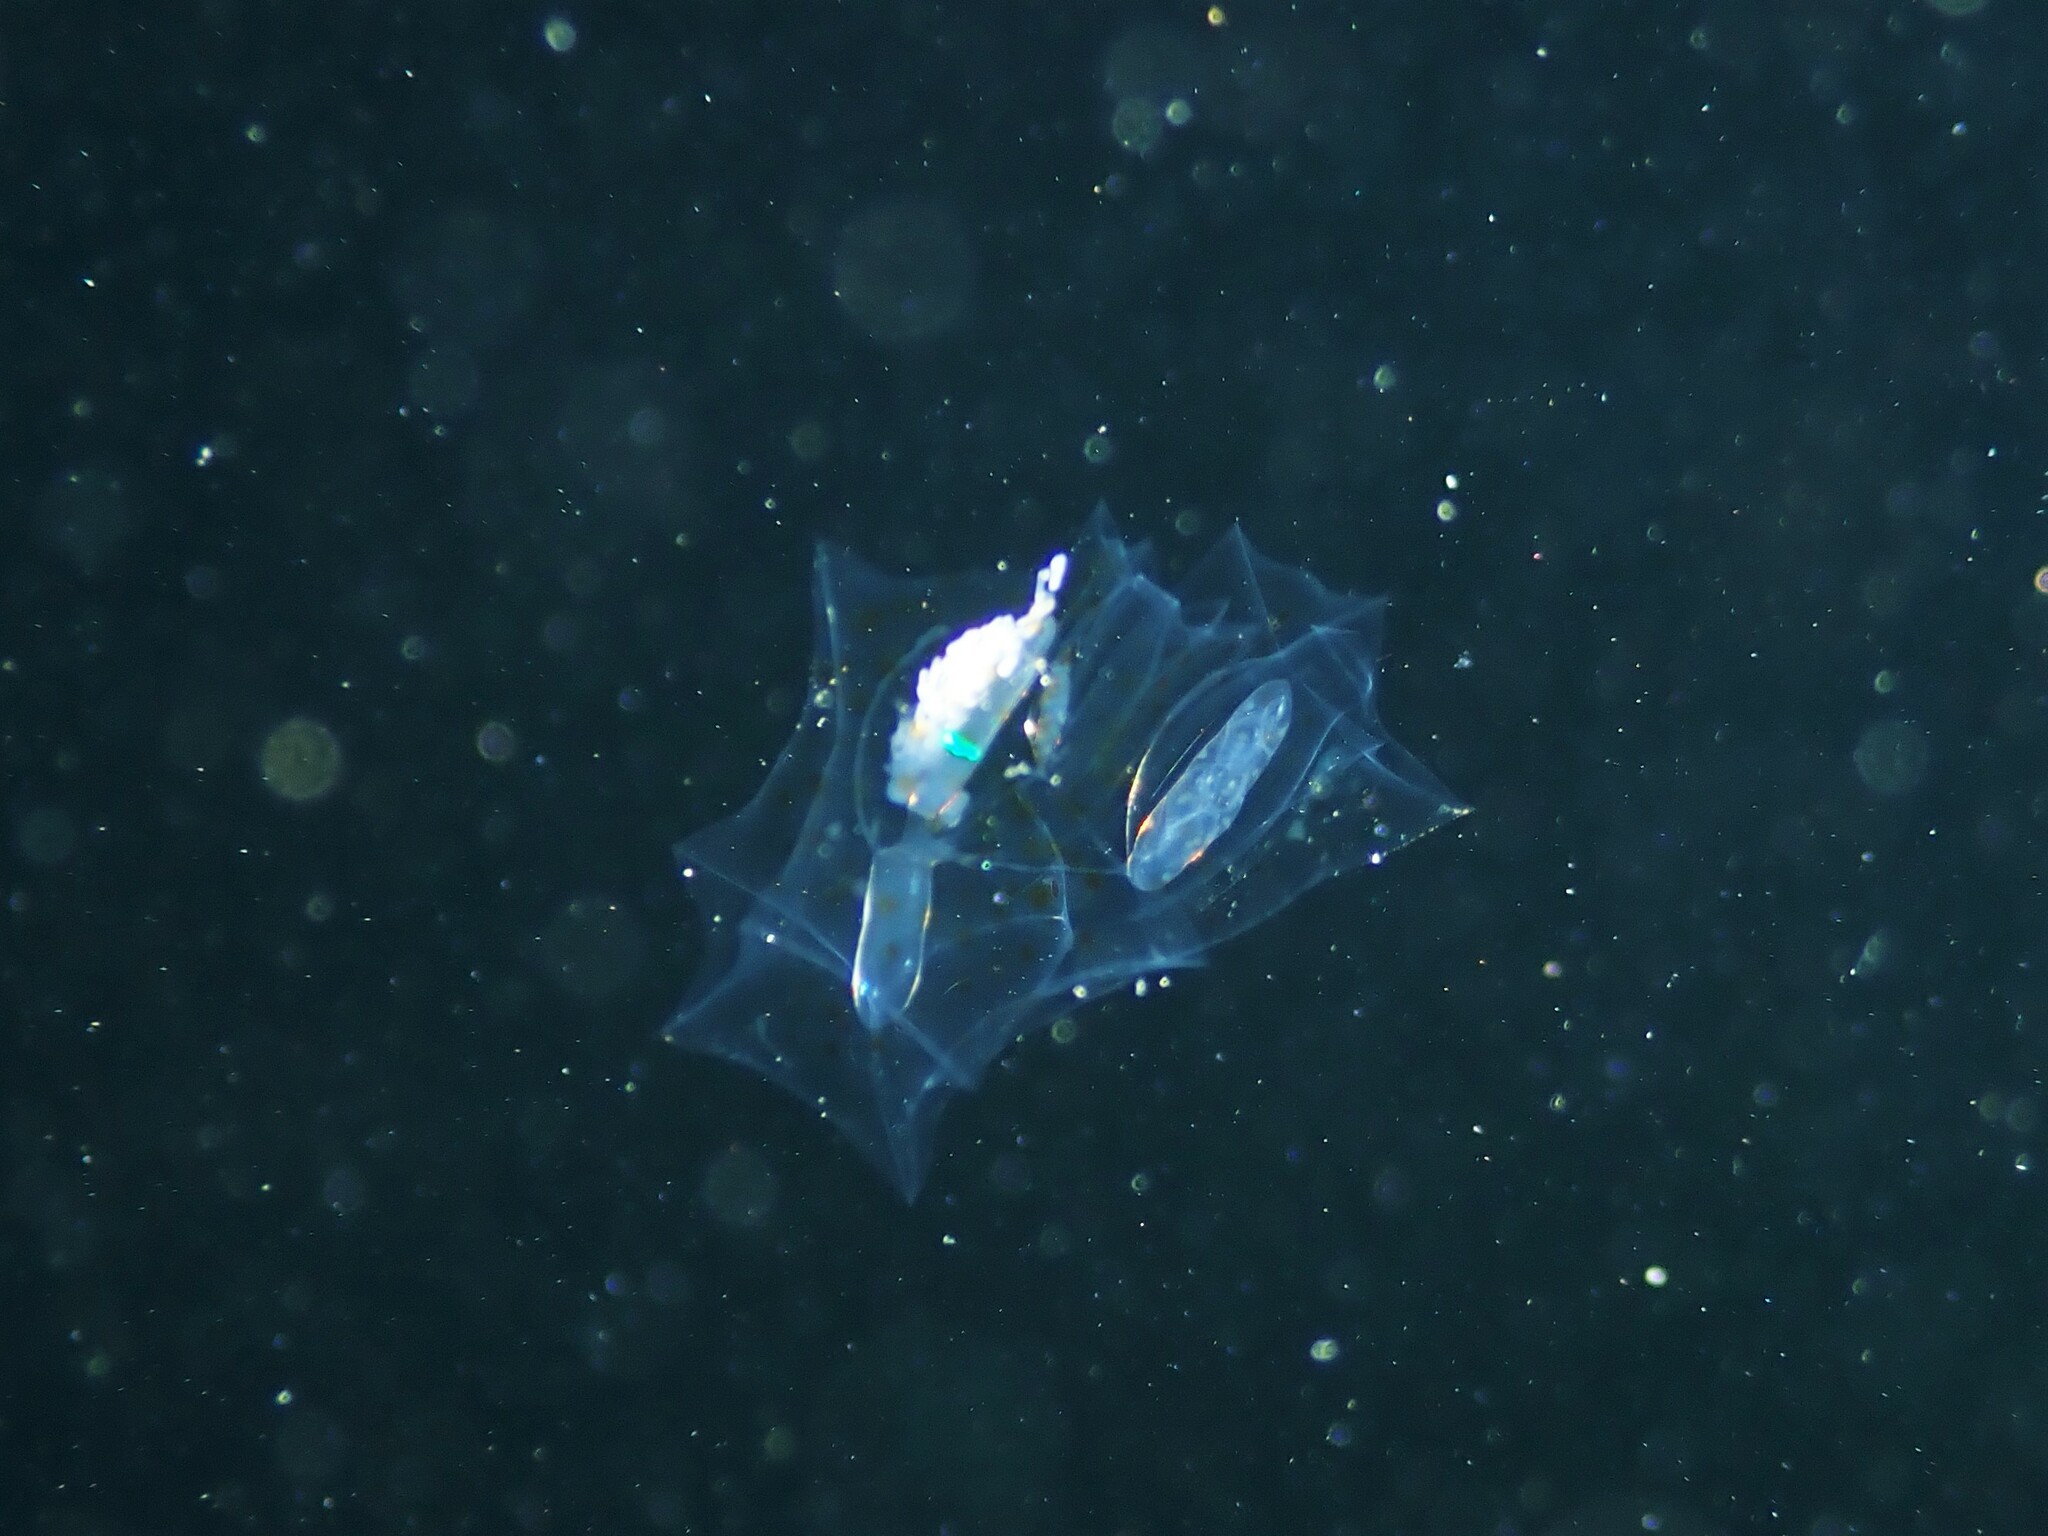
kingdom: Animalia
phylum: Cnidaria
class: Hydrozoa
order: Siphonophorae
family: Abylidae
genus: Bassia
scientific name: Bassia bassensis
